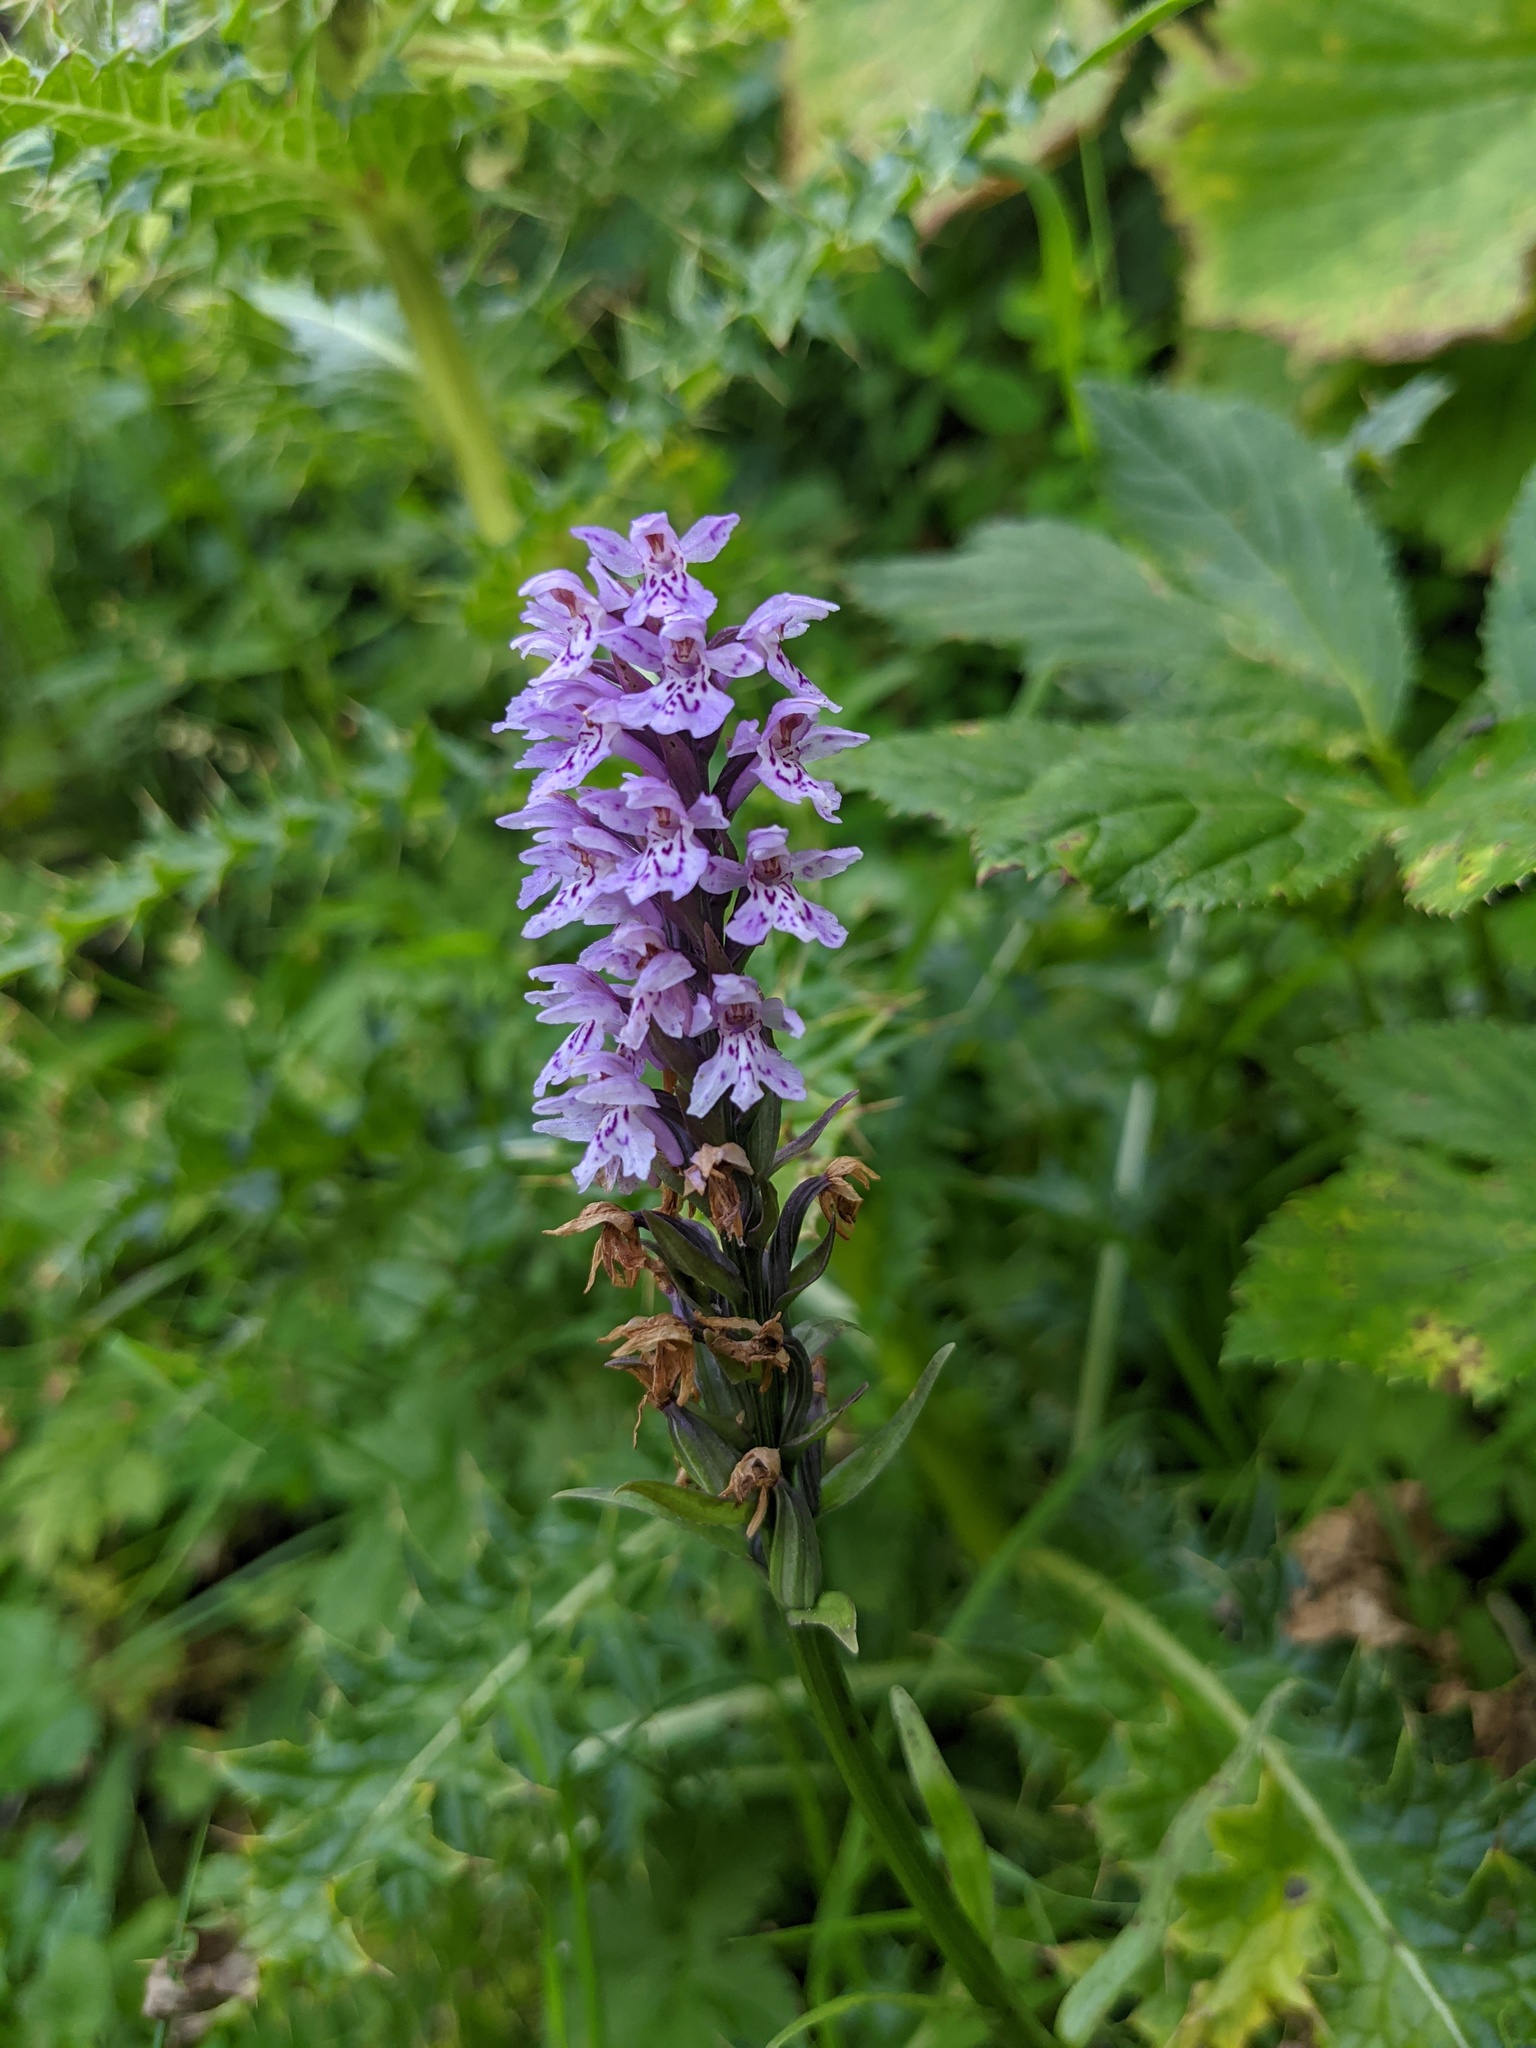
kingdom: Plantae
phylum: Tracheophyta
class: Liliopsida
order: Asparagales
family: Orchidaceae
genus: Dactylorhiza
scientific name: Dactylorhiza maculata
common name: Heath spotted-orchid
